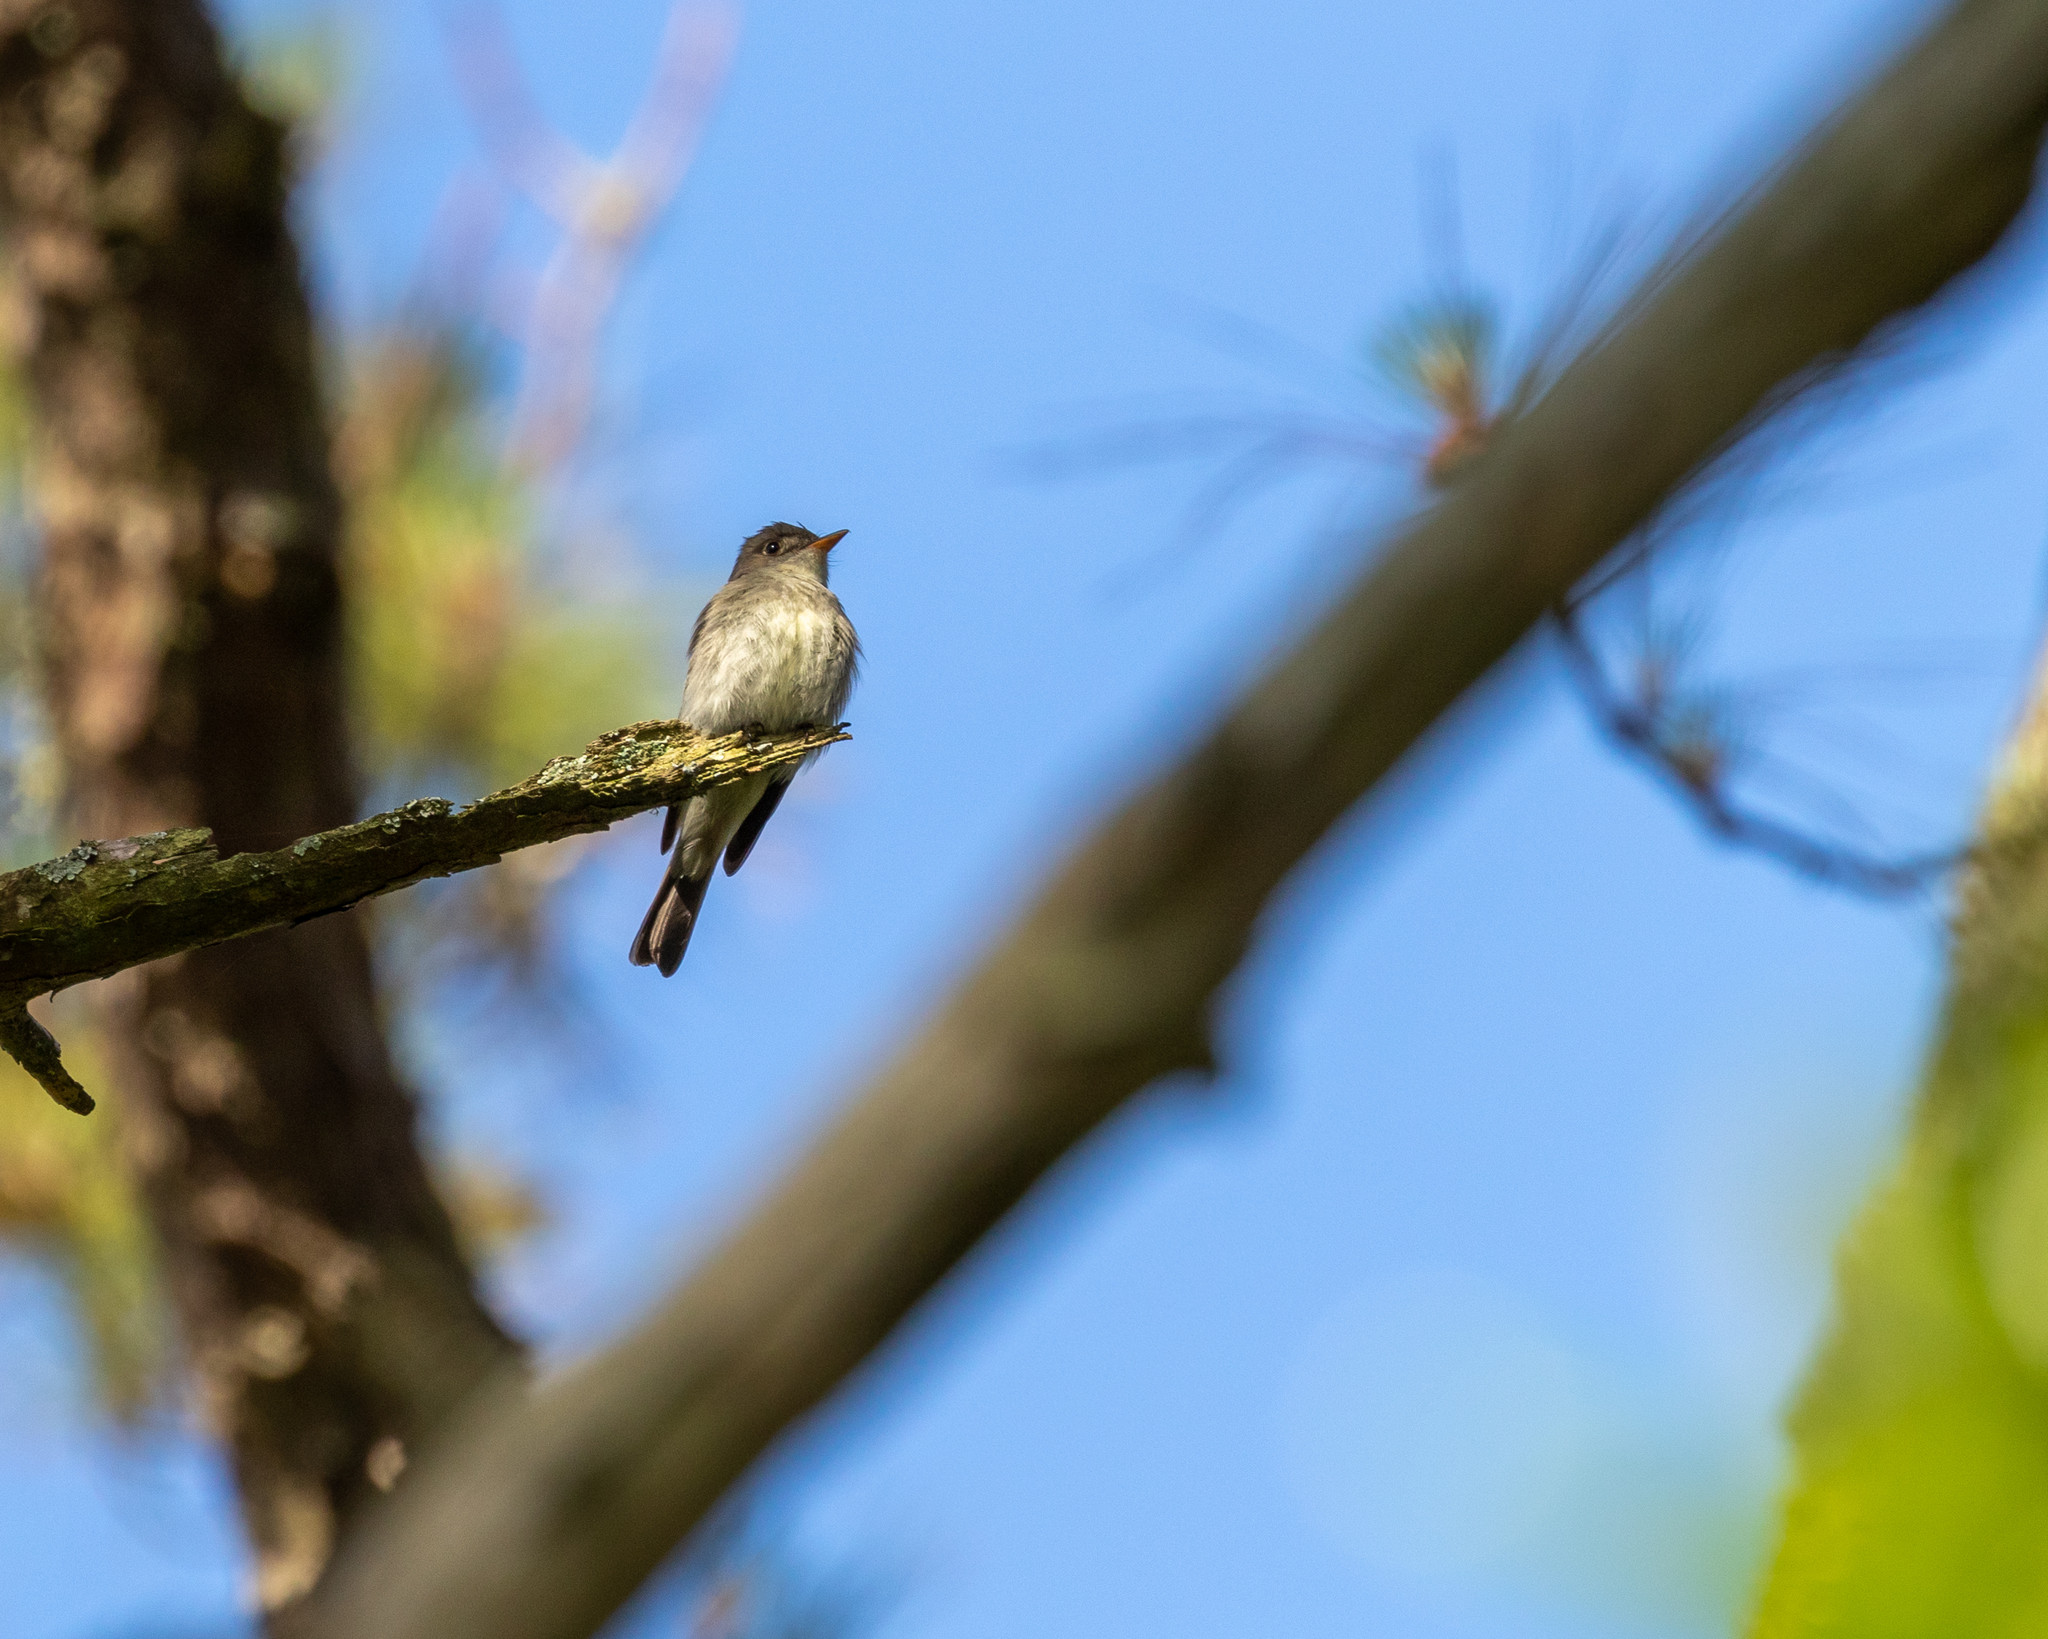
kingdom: Animalia
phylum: Chordata
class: Aves
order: Passeriformes
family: Tyrannidae
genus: Contopus
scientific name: Contopus virens
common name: Eastern wood-pewee
